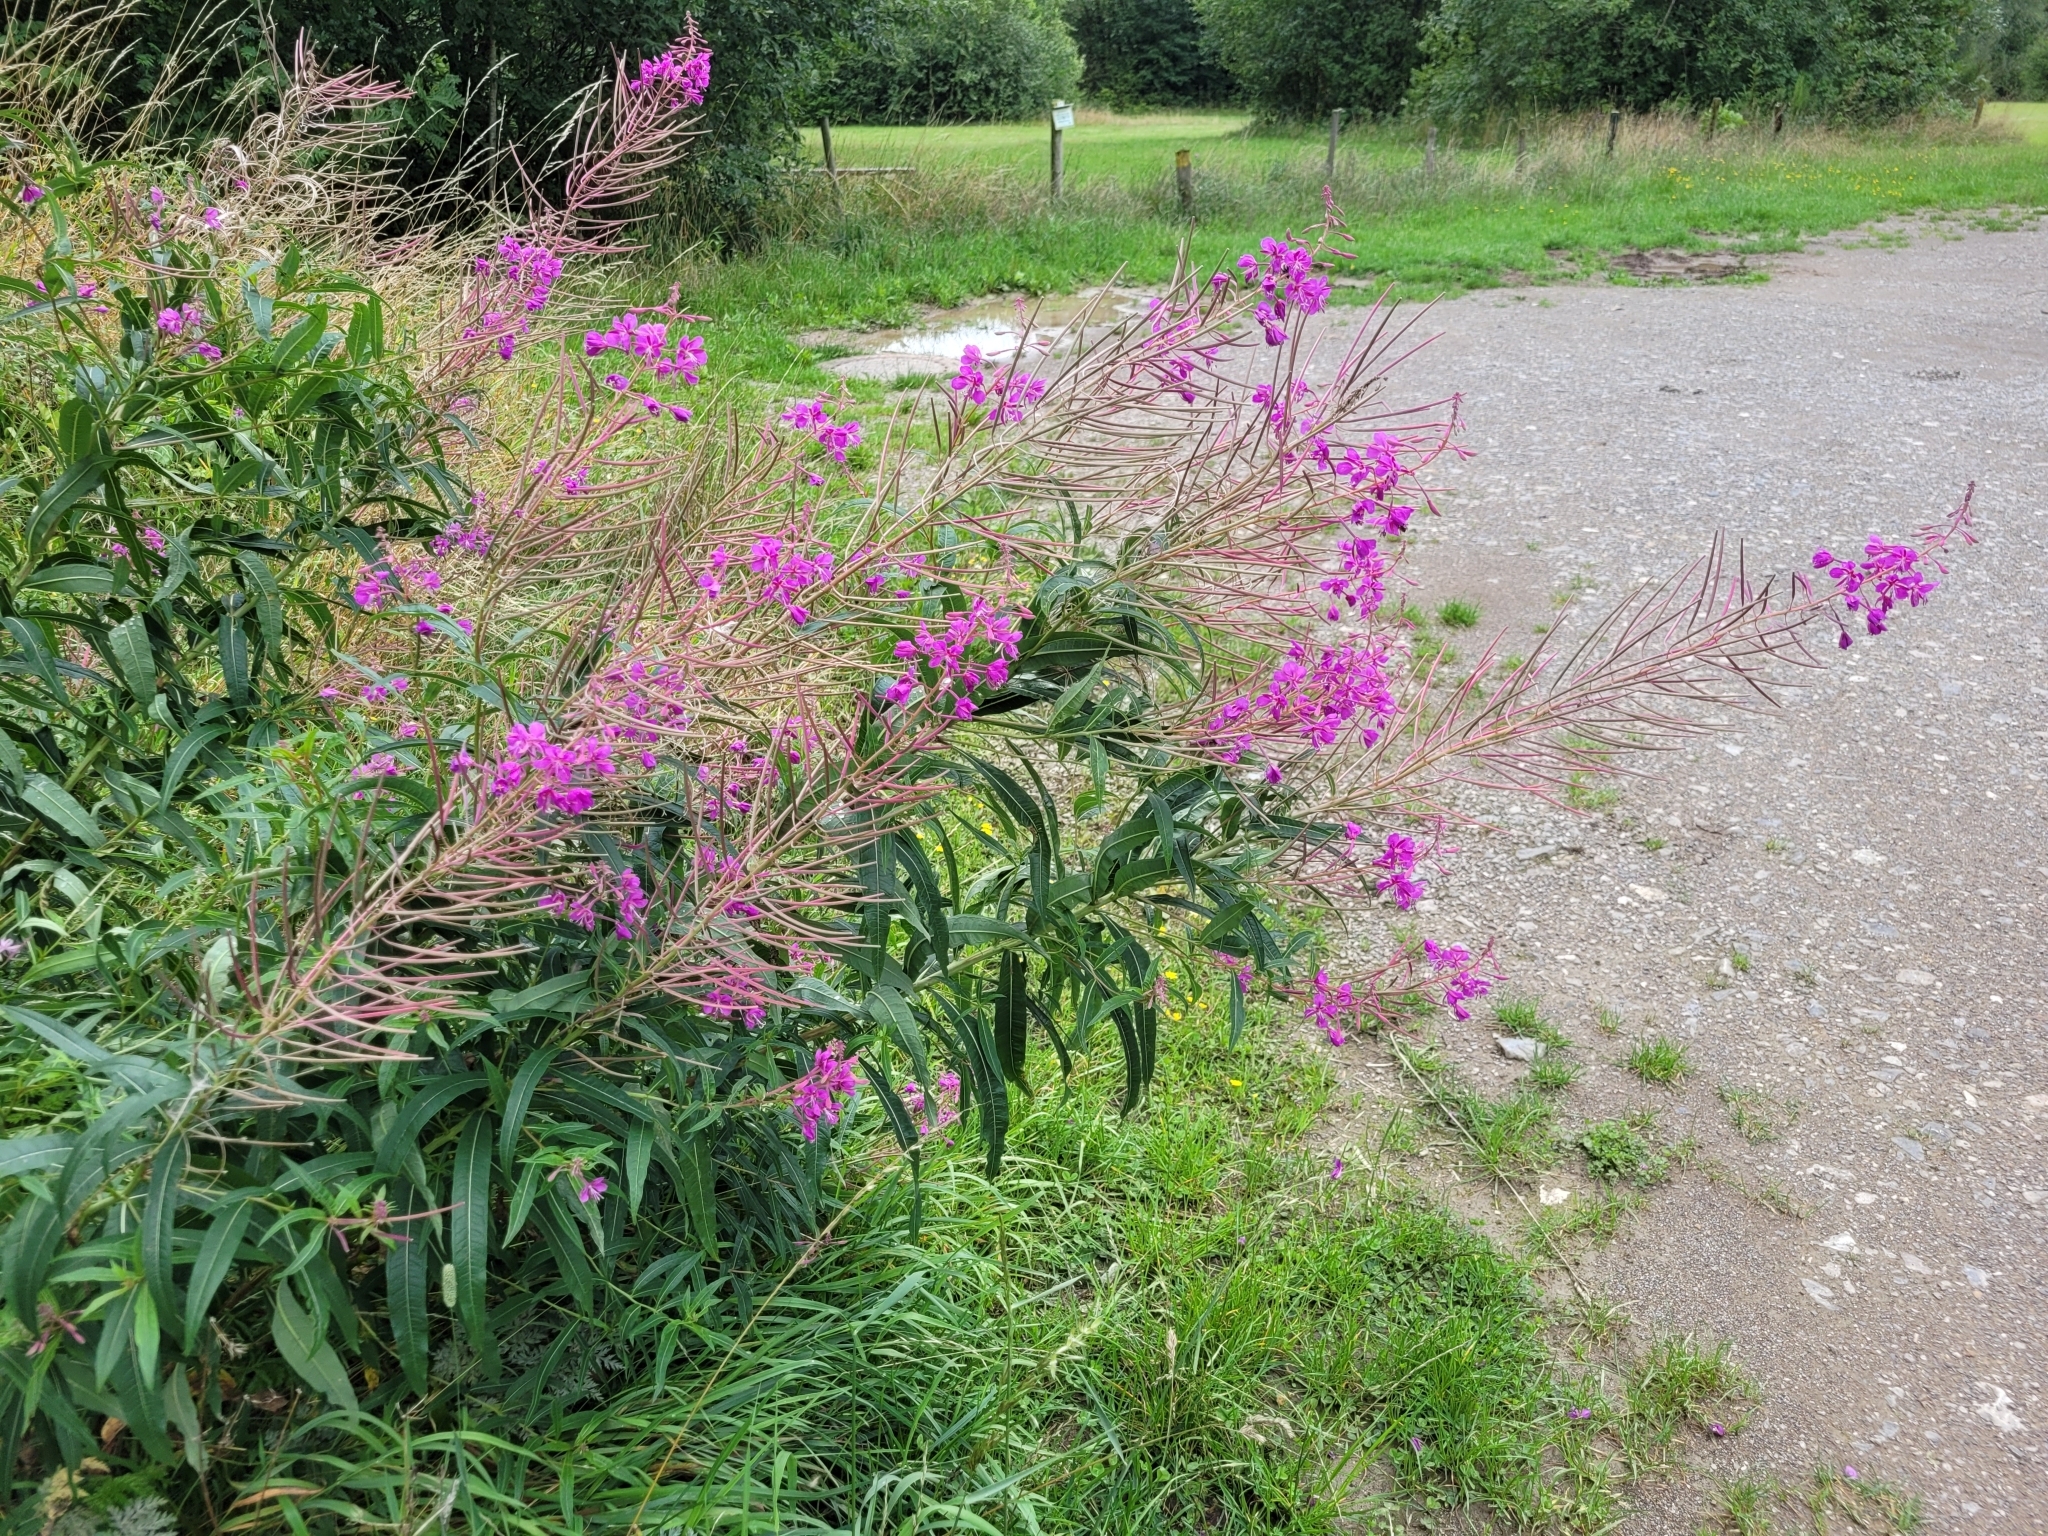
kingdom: Plantae
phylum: Tracheophyta
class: Magnoliopsida
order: Myrtales
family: Onagraceae
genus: Chamaenerion
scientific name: Chamaenerion angustifolium
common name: Fireweed
